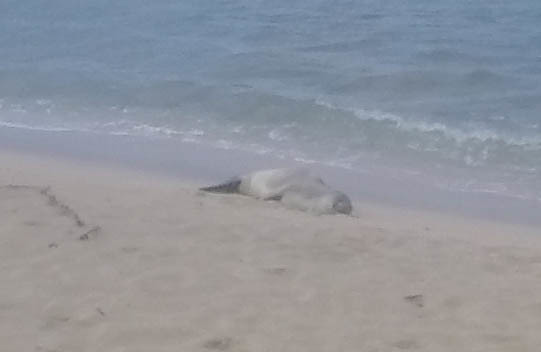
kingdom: Animalia
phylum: Chordata
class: Mammalia
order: Carnivora
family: Phocidae
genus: Neomonachus
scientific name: Neomonachus schauinslandi
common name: Hawaiian monk seal
